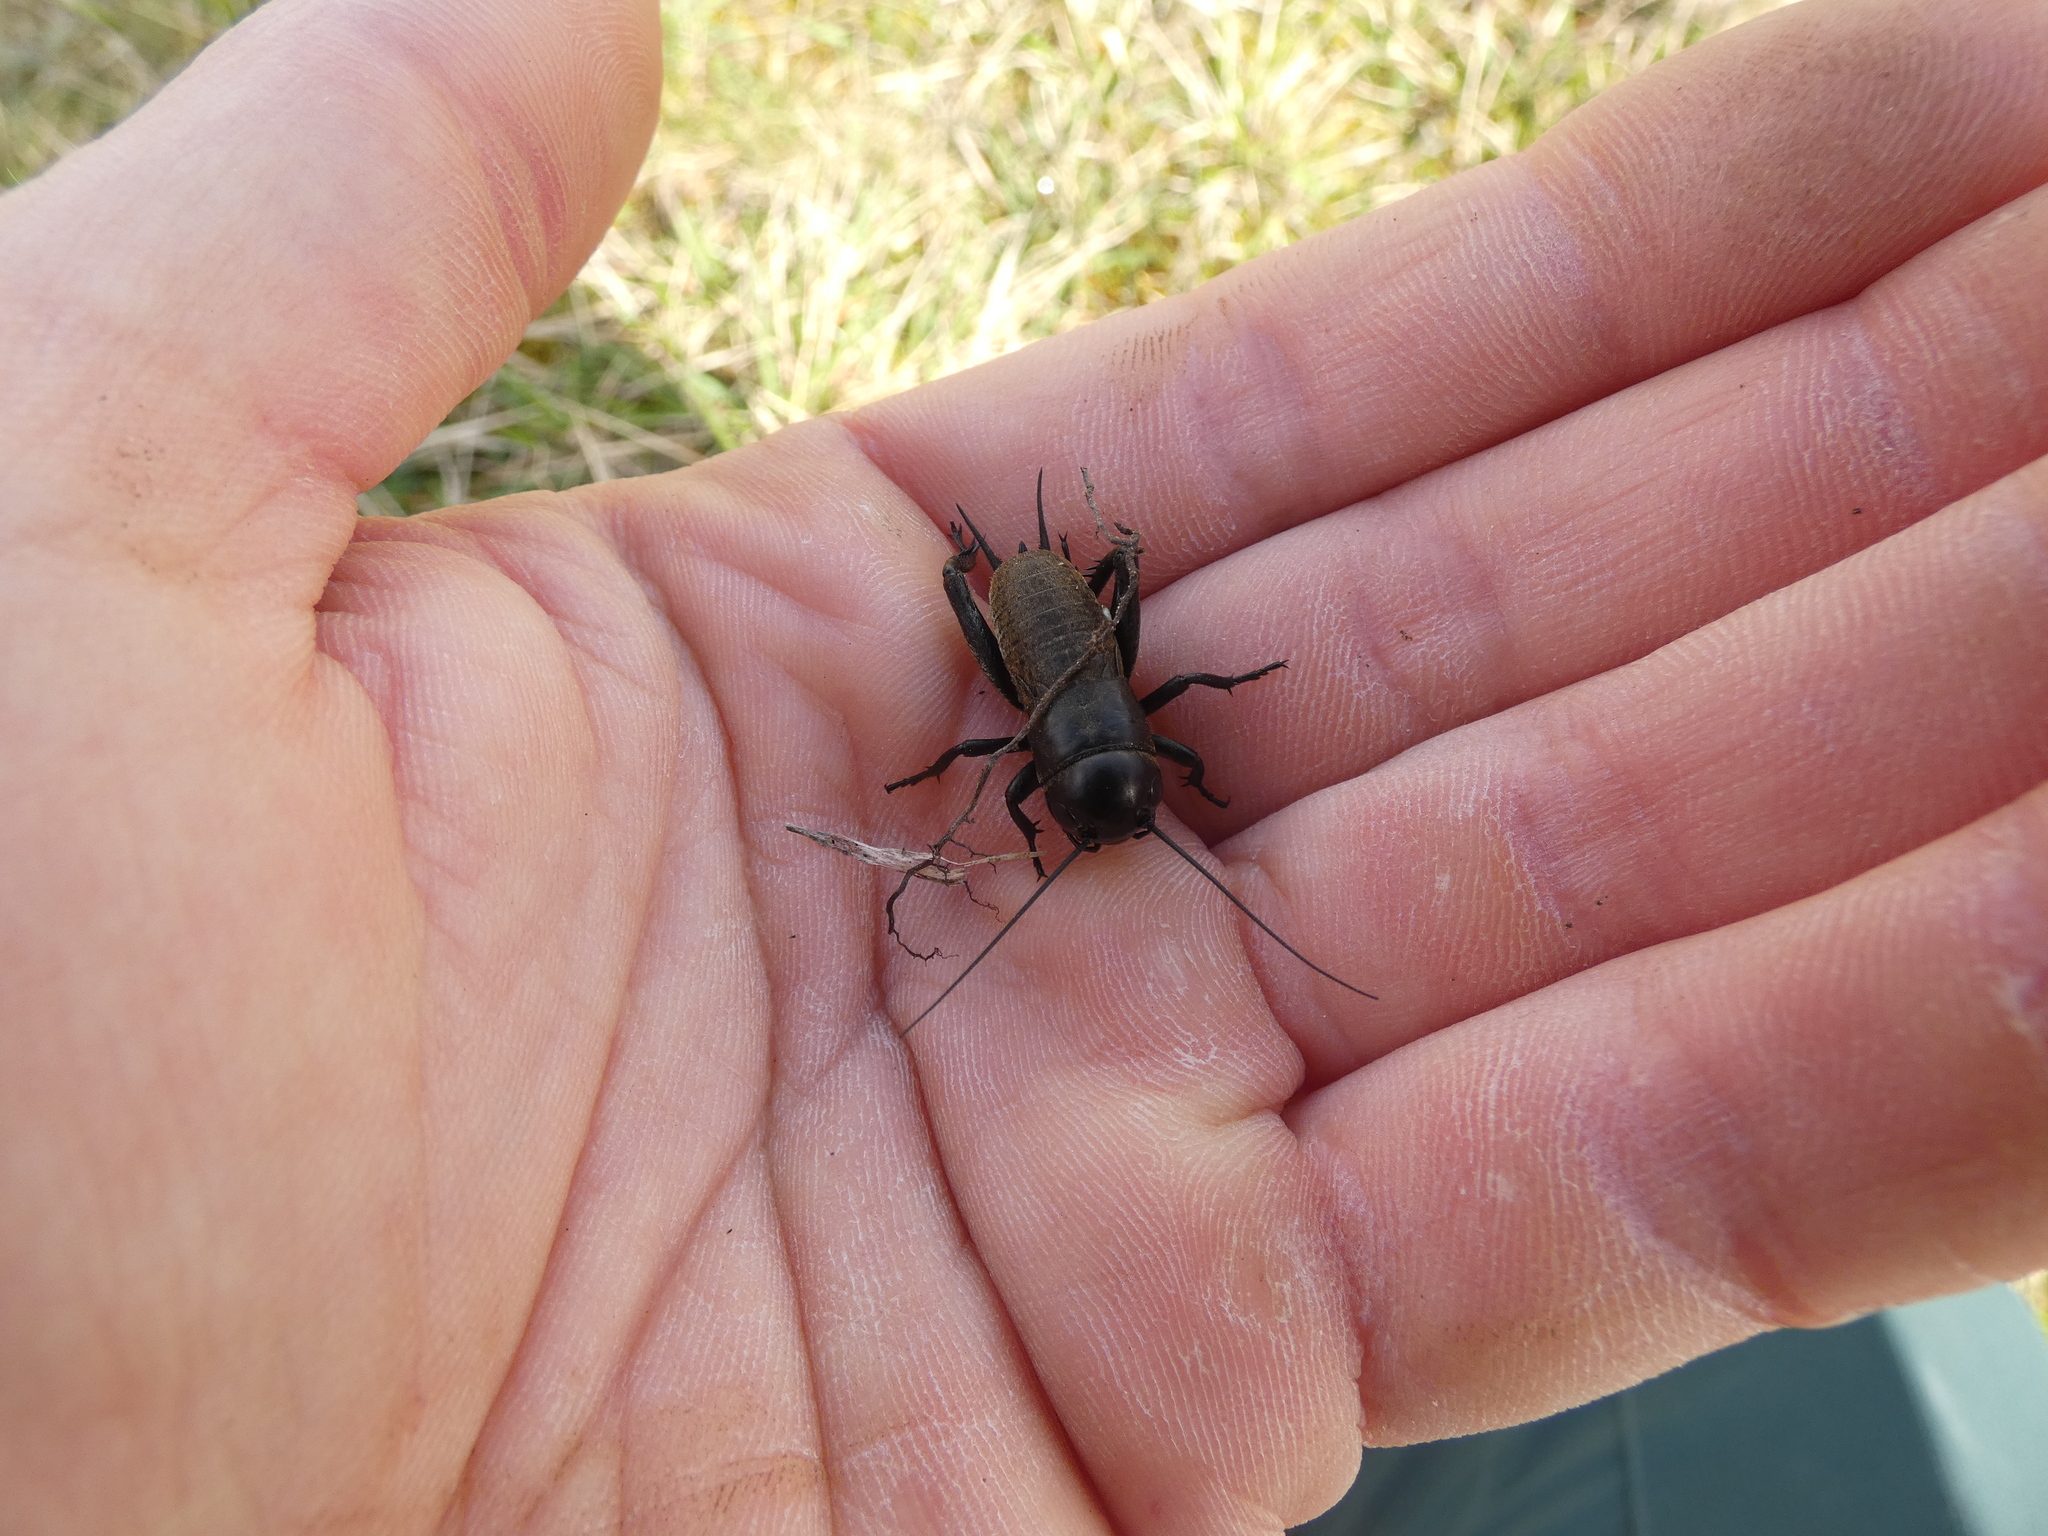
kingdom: Animalia
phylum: Arthropoda
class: Insecta
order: Orthoptera
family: Gryllidae
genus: Gryllus
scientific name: Gryllus campestris
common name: Field cricket
